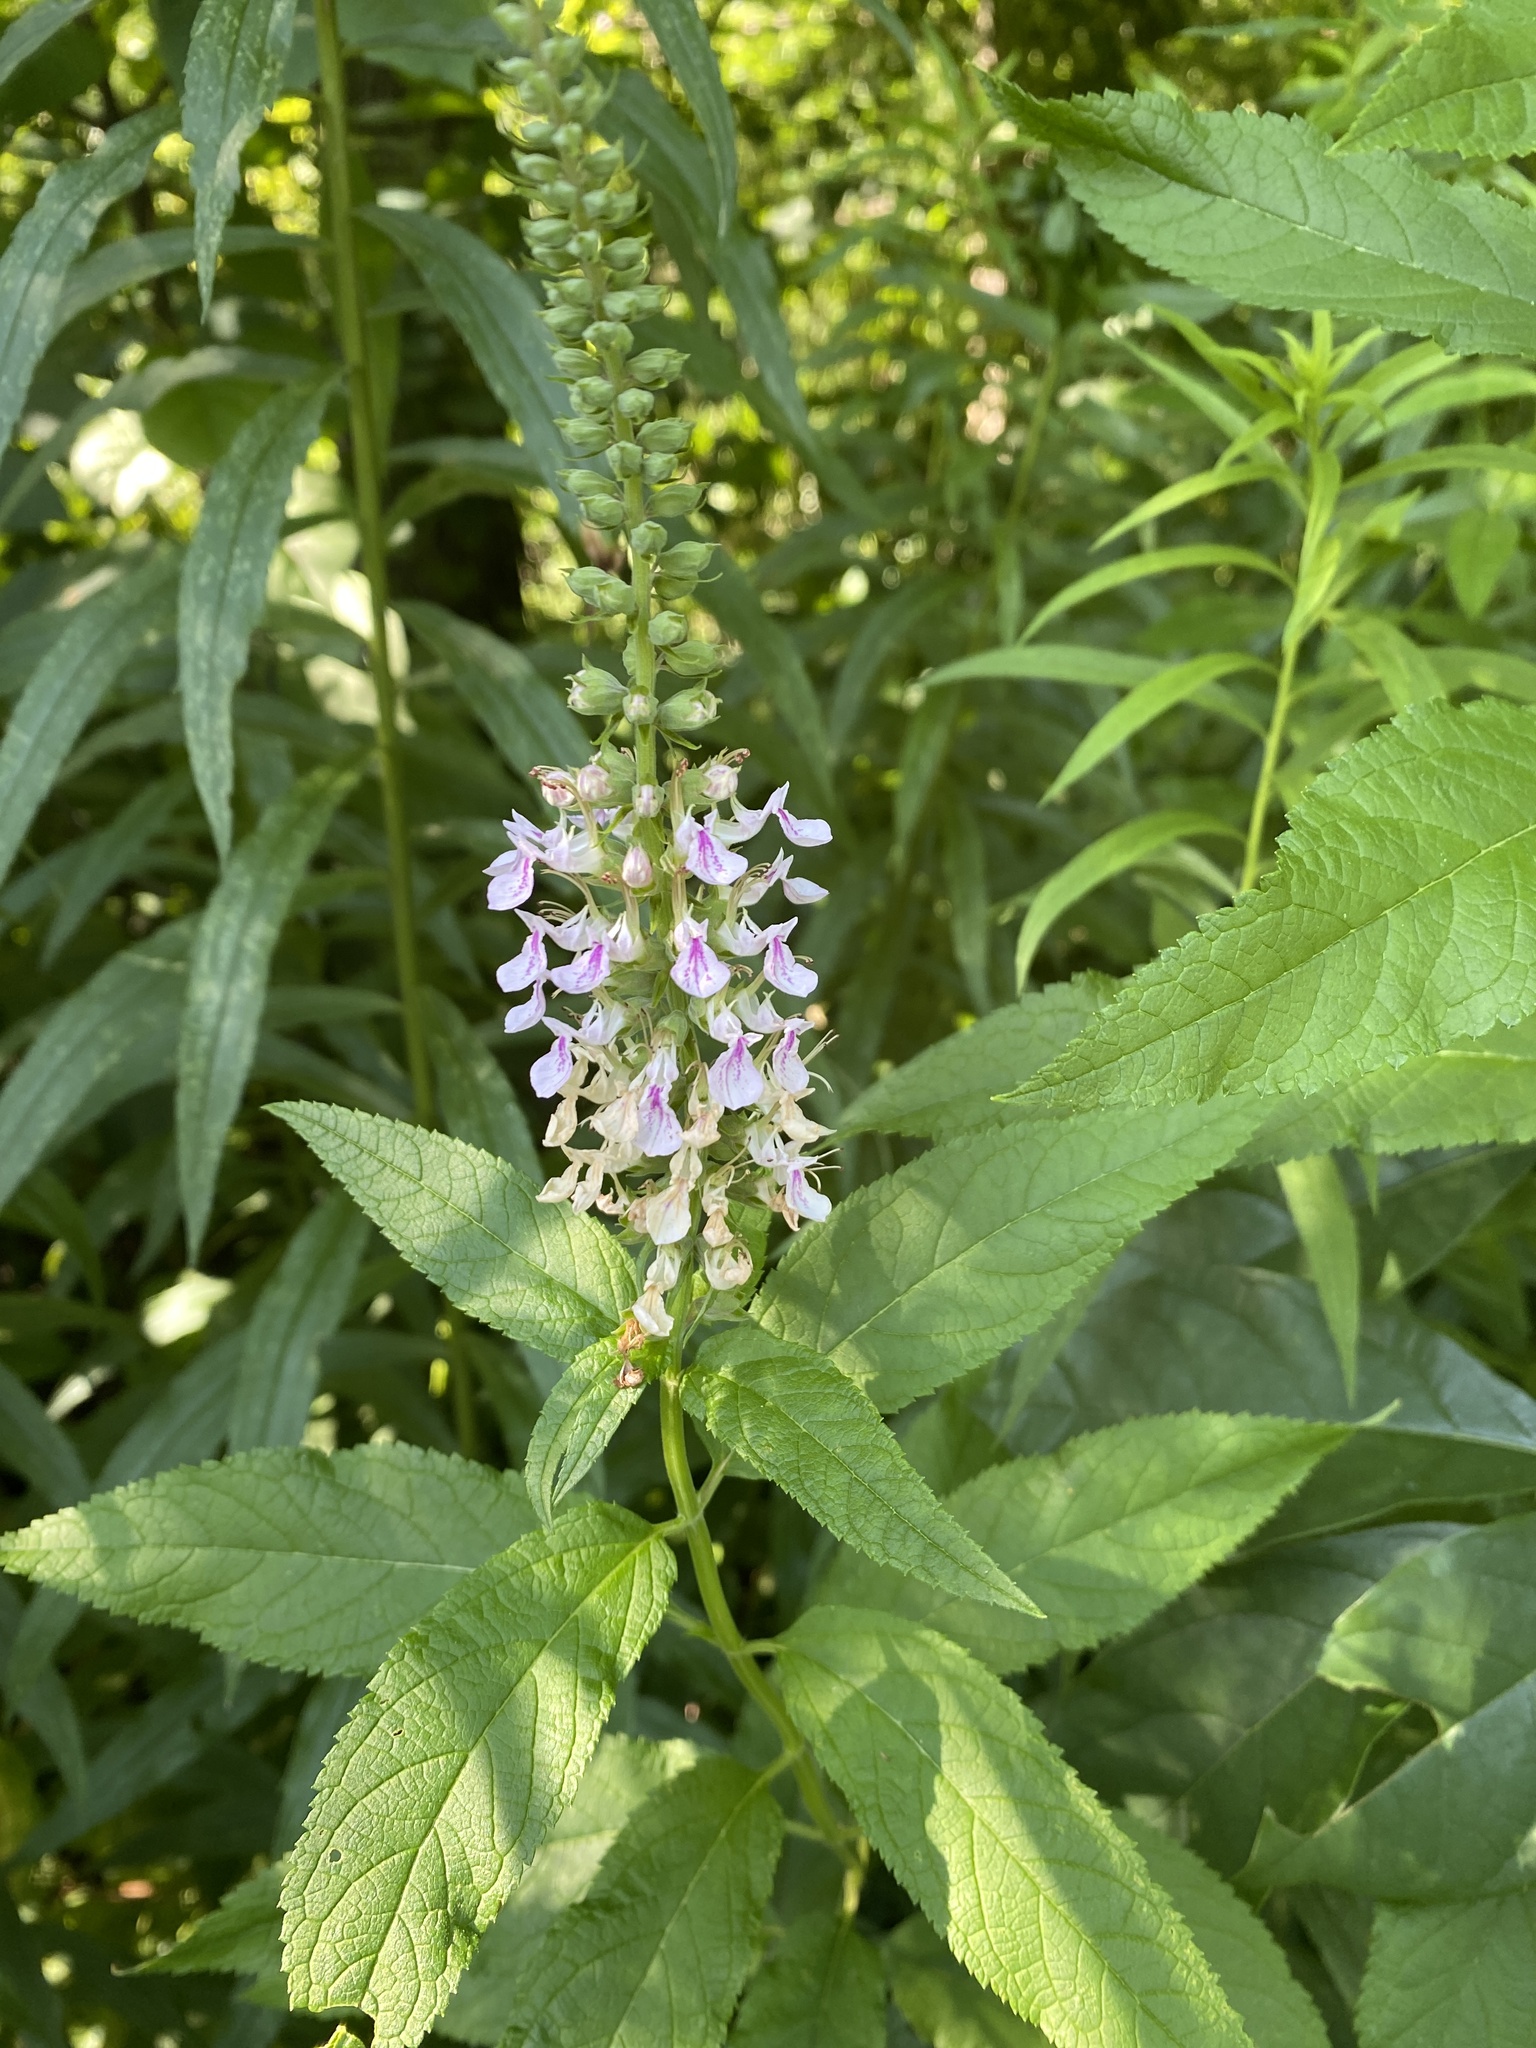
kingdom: Plantae
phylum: Tracheophyta
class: Magnoliopsida
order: Lamiales
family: Lamiaceae
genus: Teucrium
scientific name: Teucrium canadense
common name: American germander
